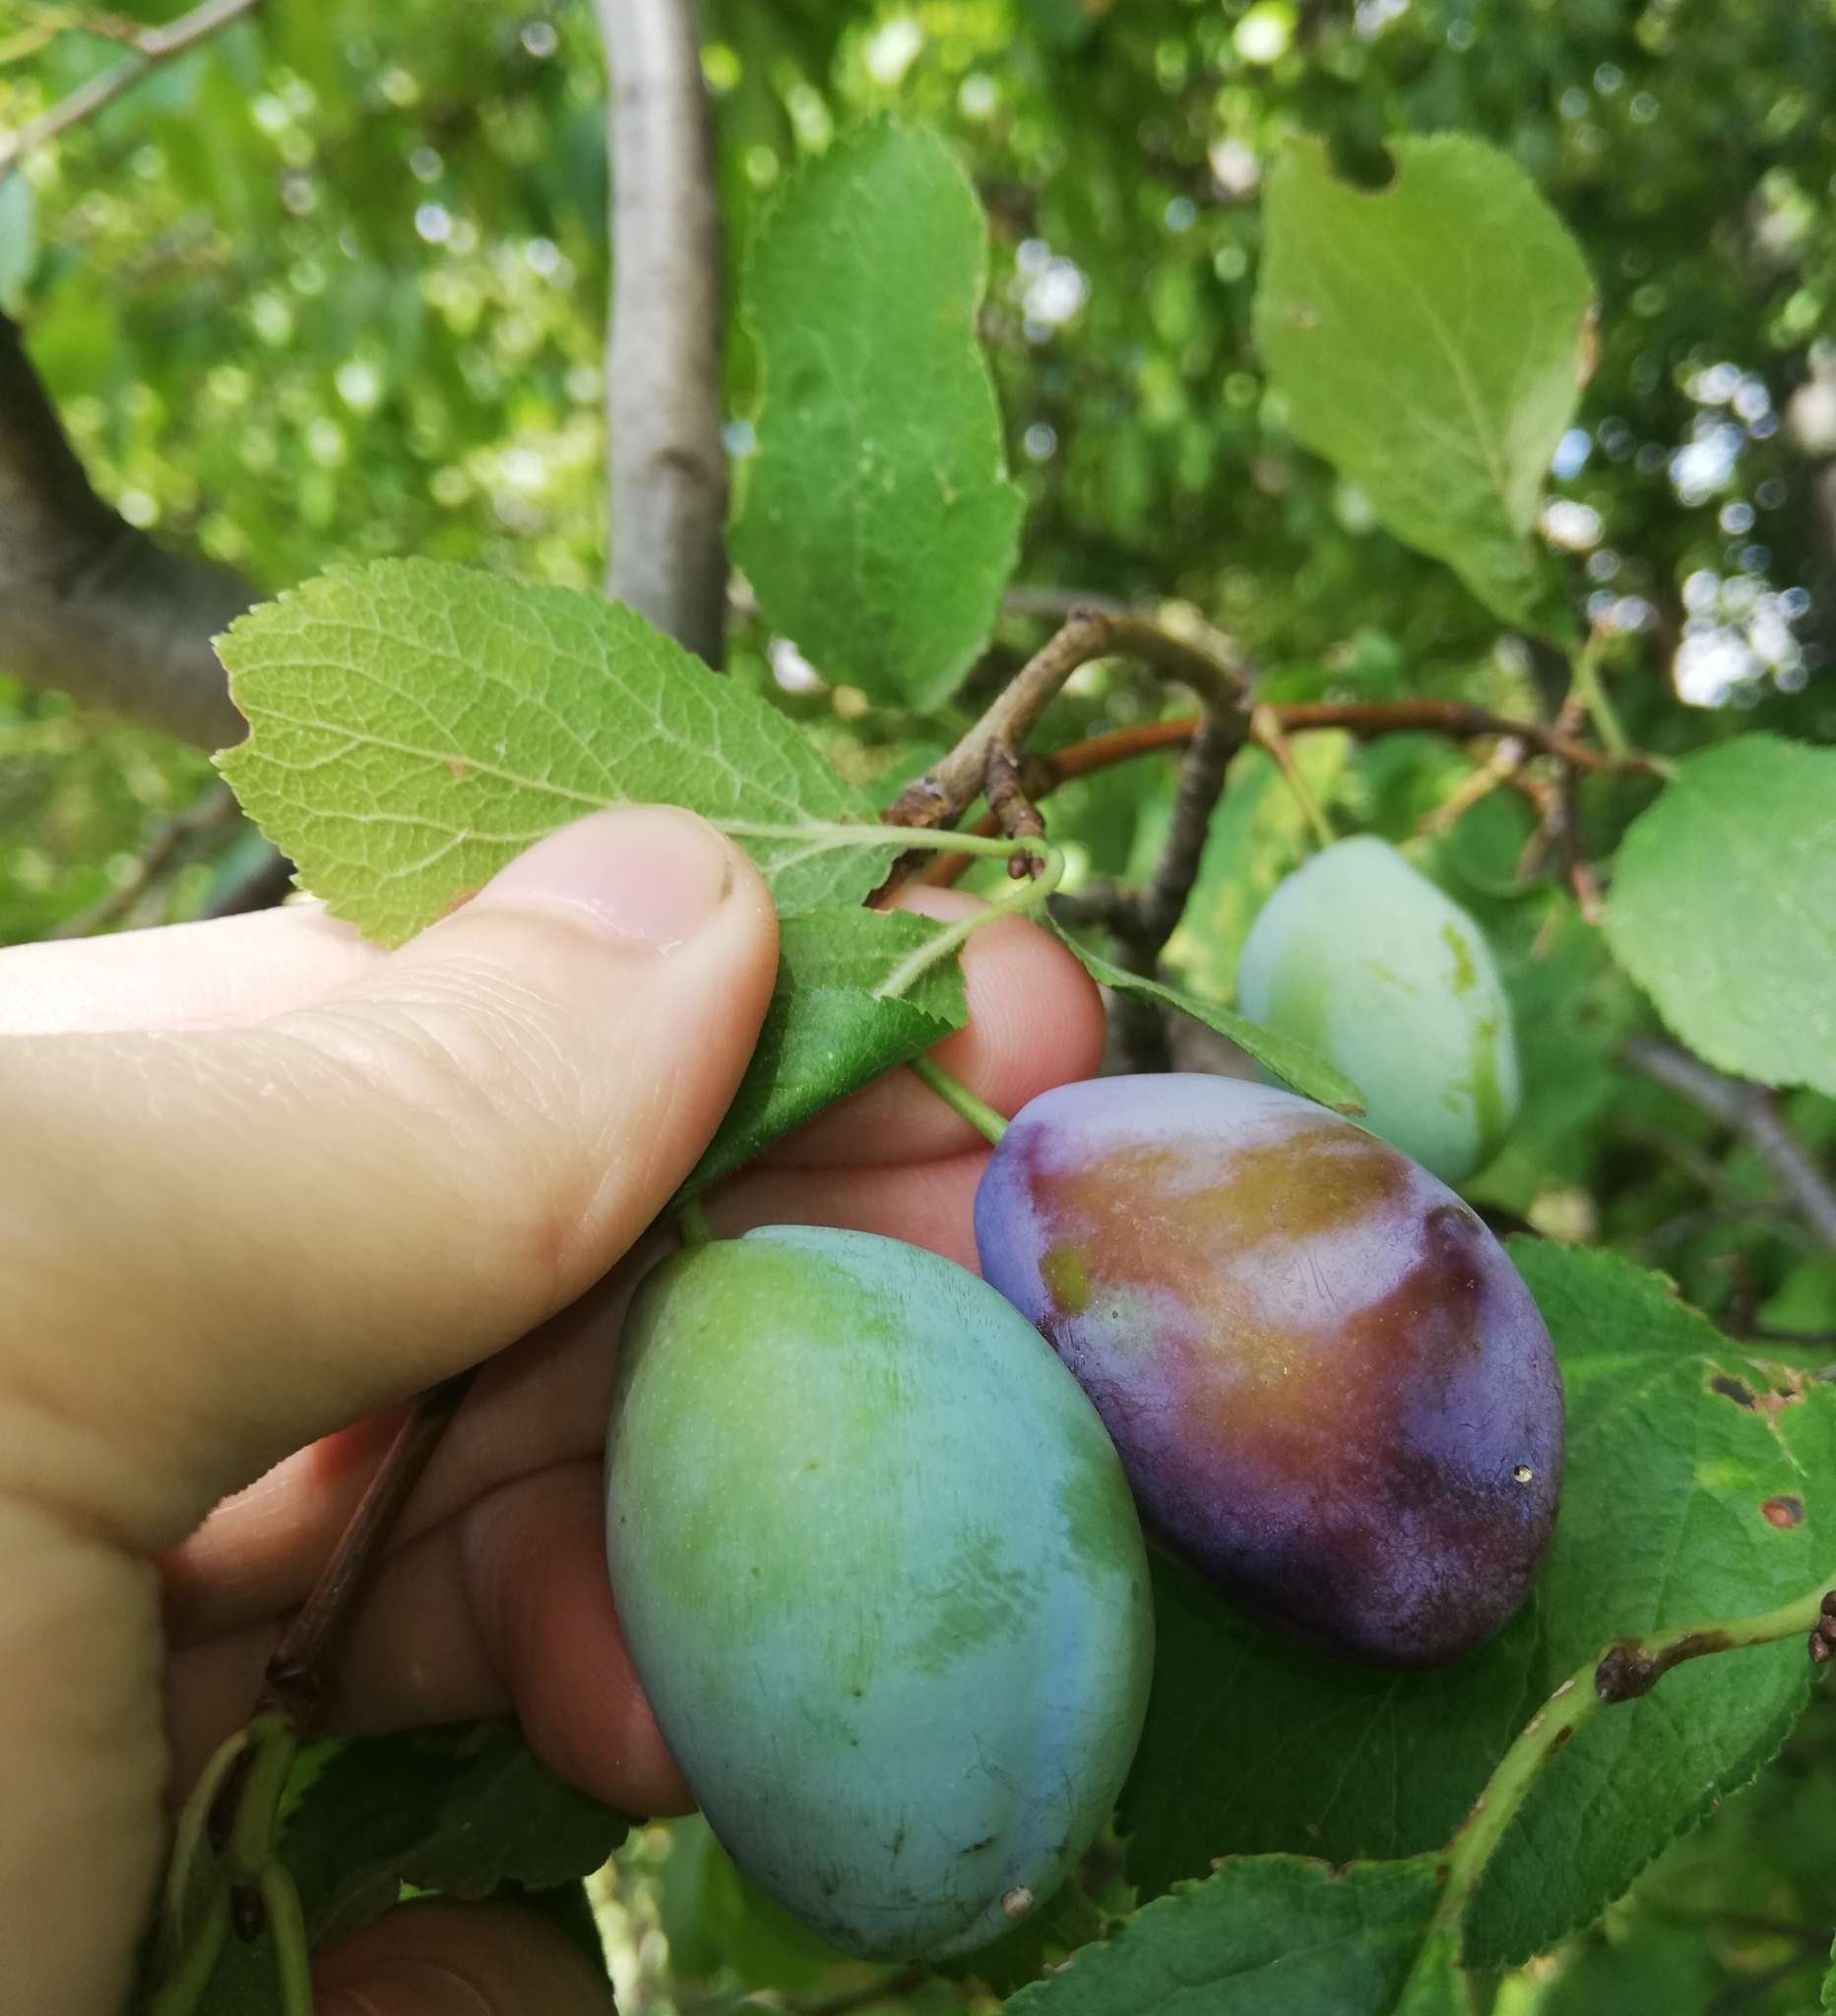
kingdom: Plantae
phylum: Tracheophyta
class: Magnoliopsida
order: Rosales
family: Rosaceae
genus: Prunus
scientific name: Prunus domestica
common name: Wild plum
